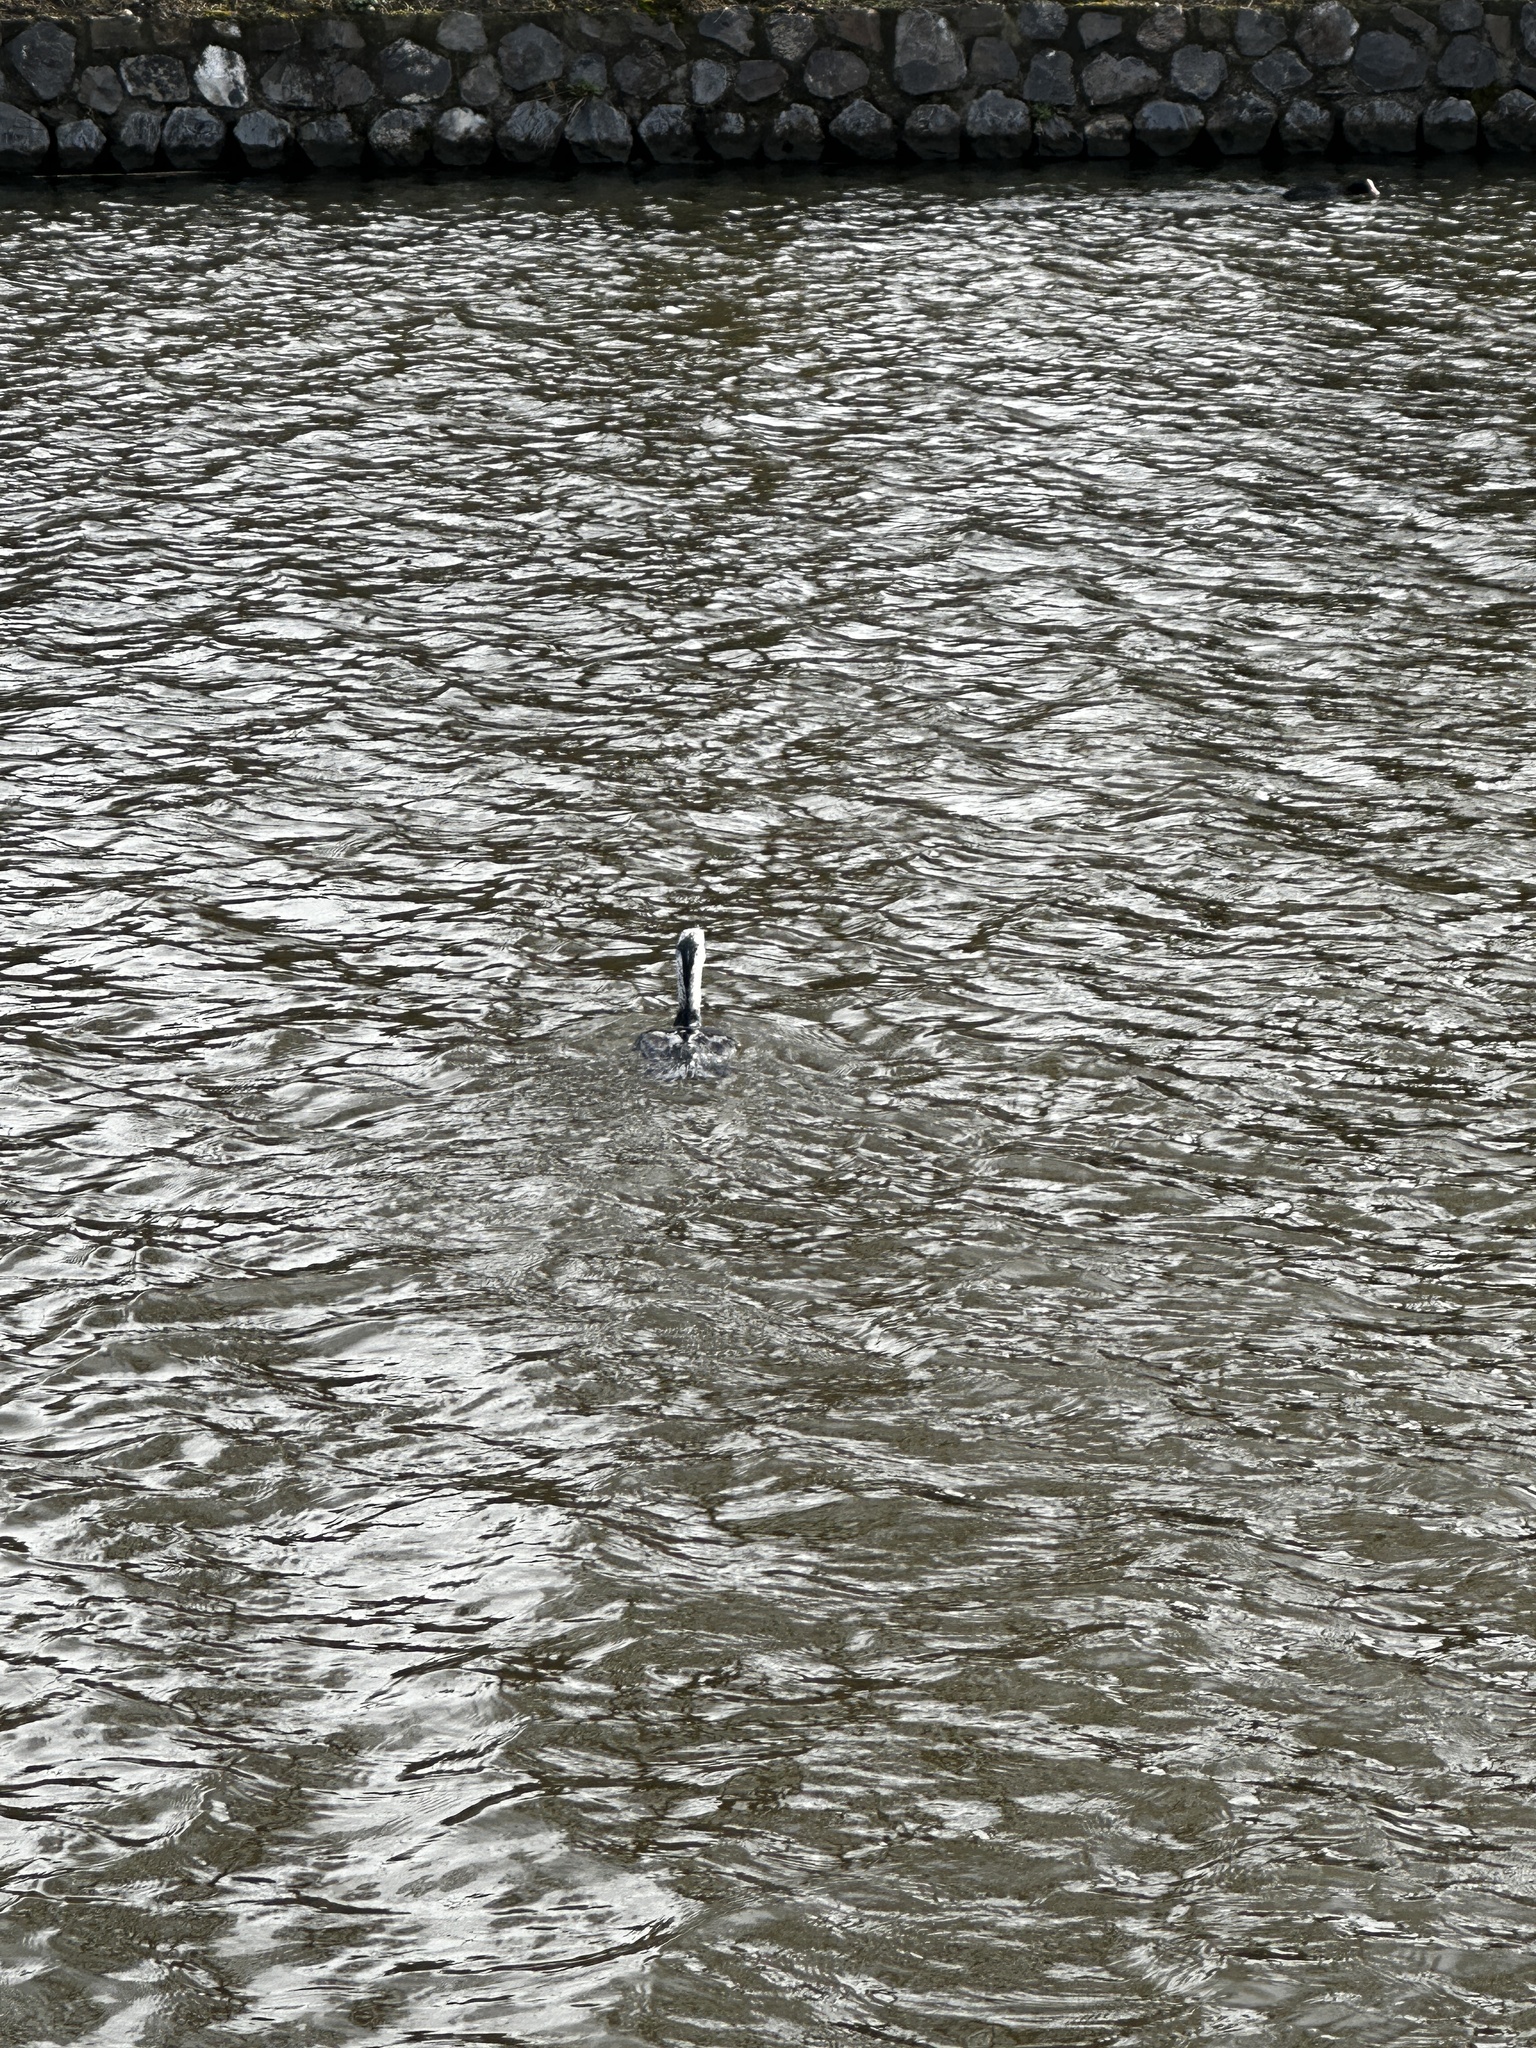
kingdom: Animalia
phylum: Chordata
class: Aves
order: Suliformes
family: Phalacrocoracidae
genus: Phalacrocorax
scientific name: Phalacrocorax carbo
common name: Great cormorant
